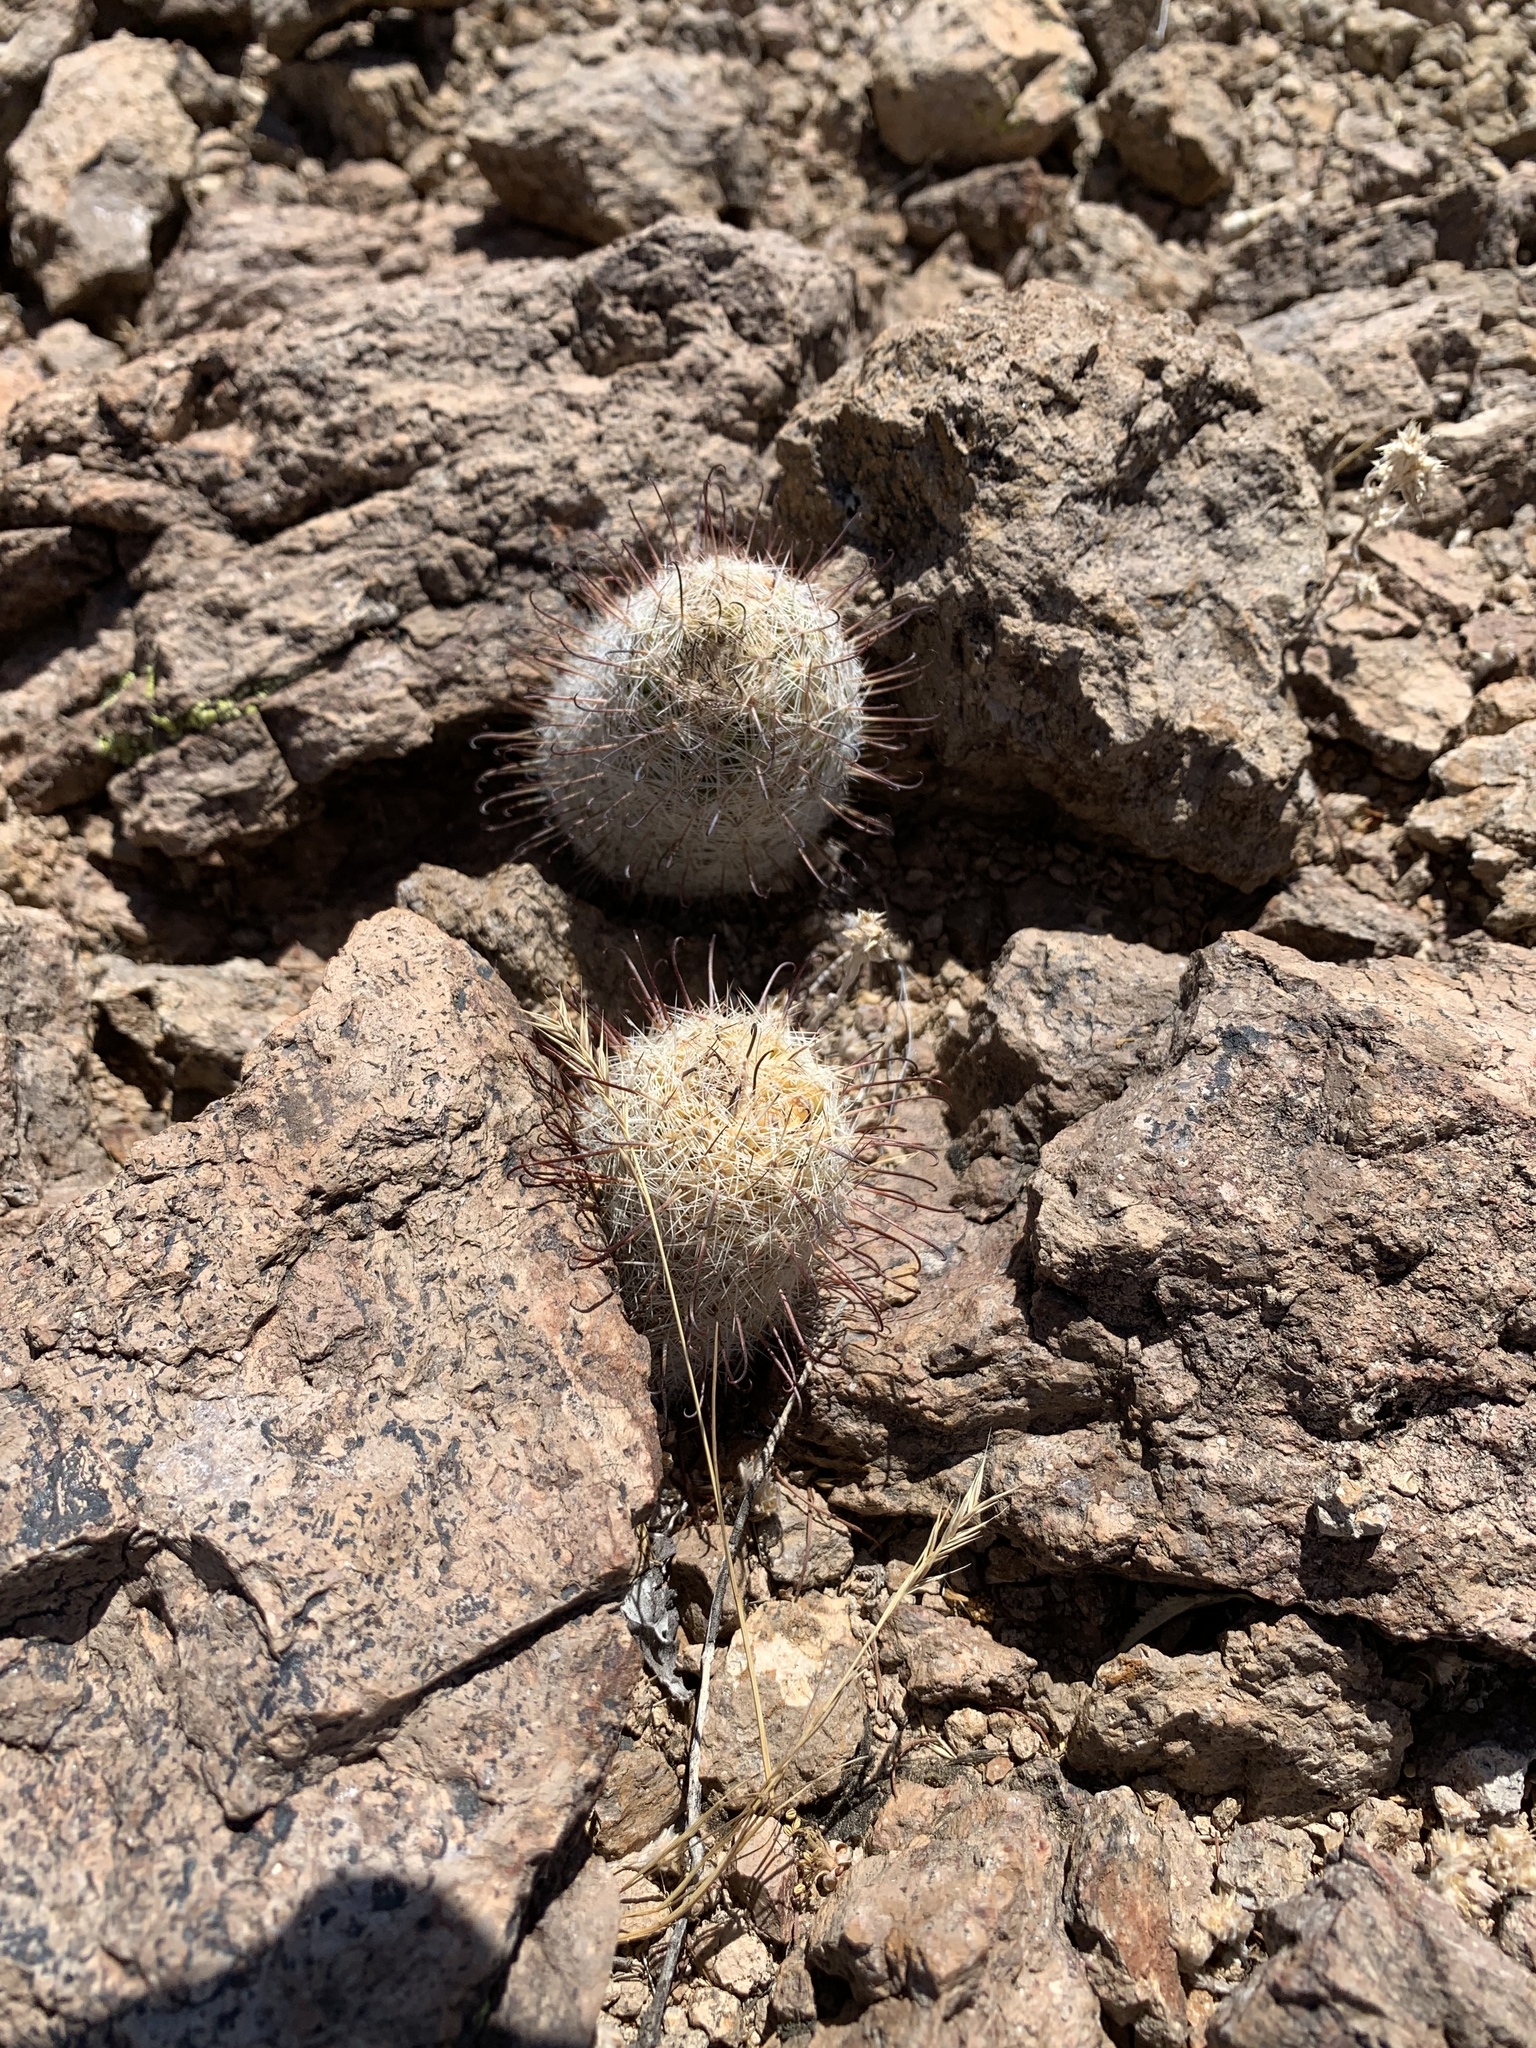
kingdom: Plantae
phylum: Tracheophyta
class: Magnoliopsida
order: Caryophyllales
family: Cactaceae
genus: Cochemiea
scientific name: Cochemiea grahamii
